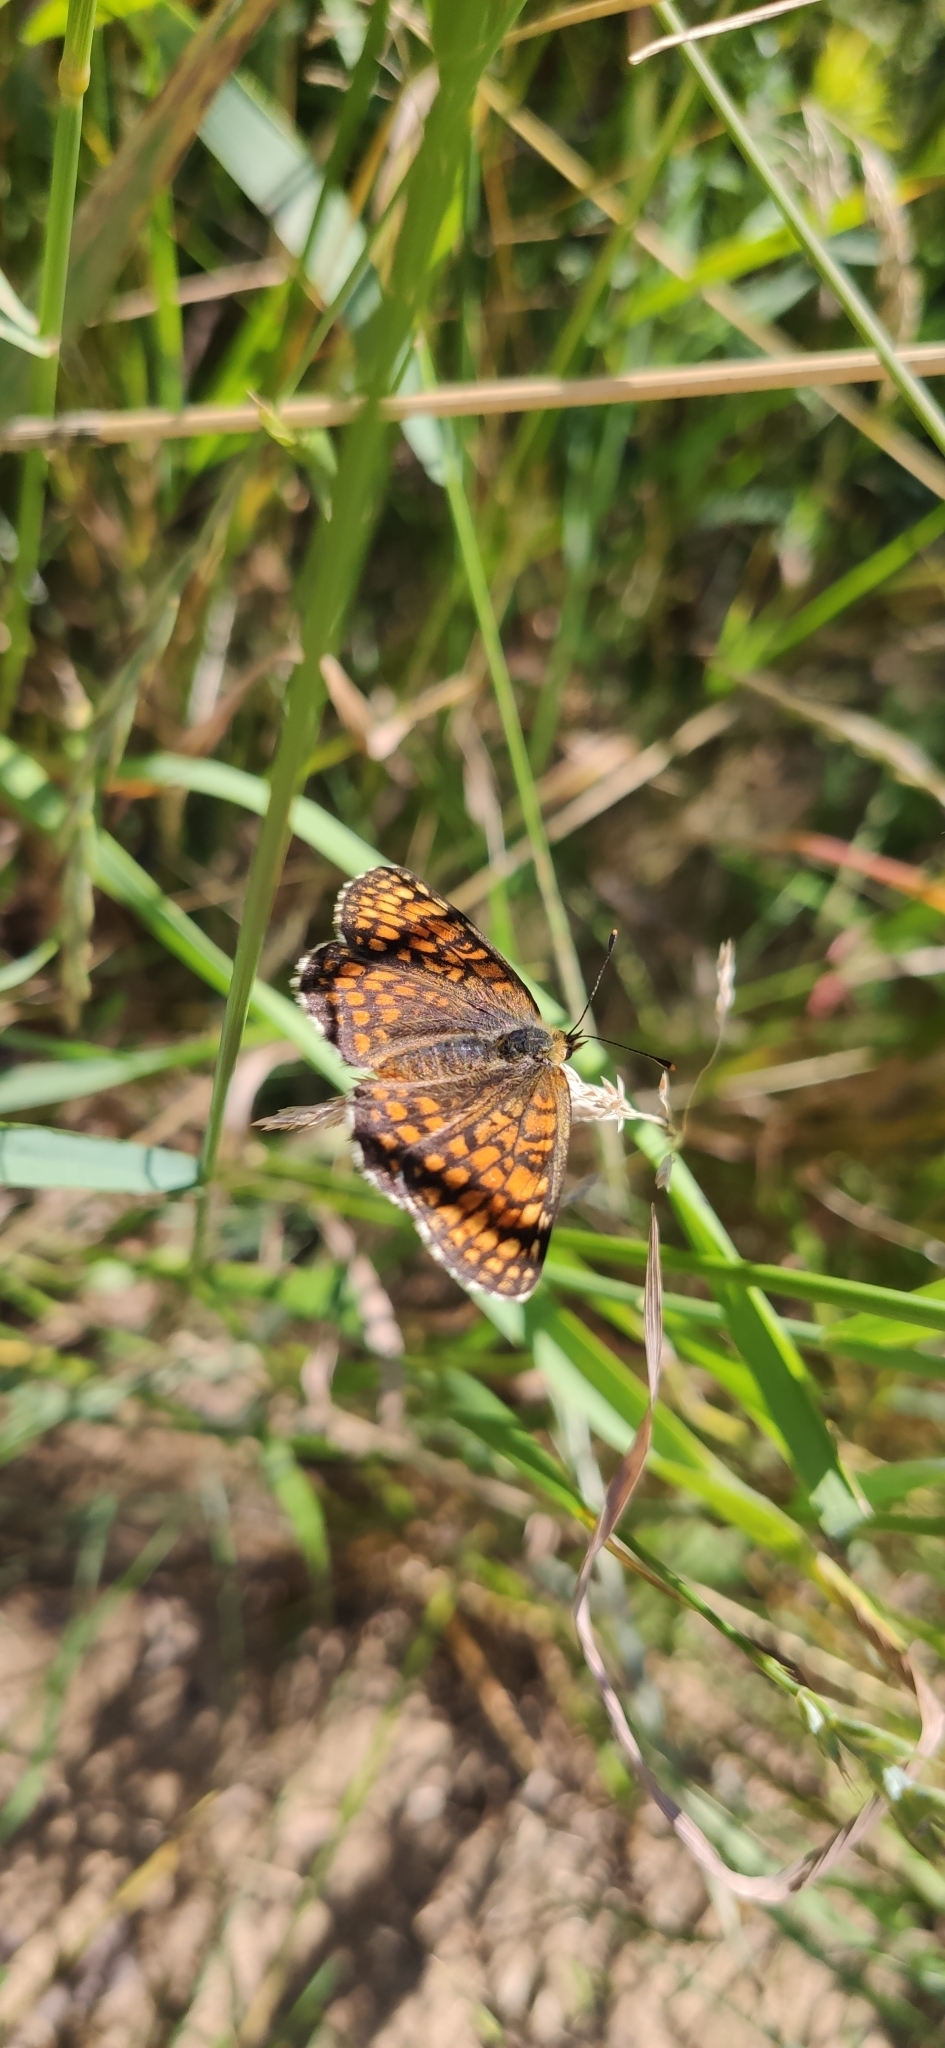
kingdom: Animalia
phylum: Arthropoda
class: Insecta
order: Lepidoptera
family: Nymphalidae
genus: Melitaea
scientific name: Melitaea phoebe
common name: Knapweed fritillary
